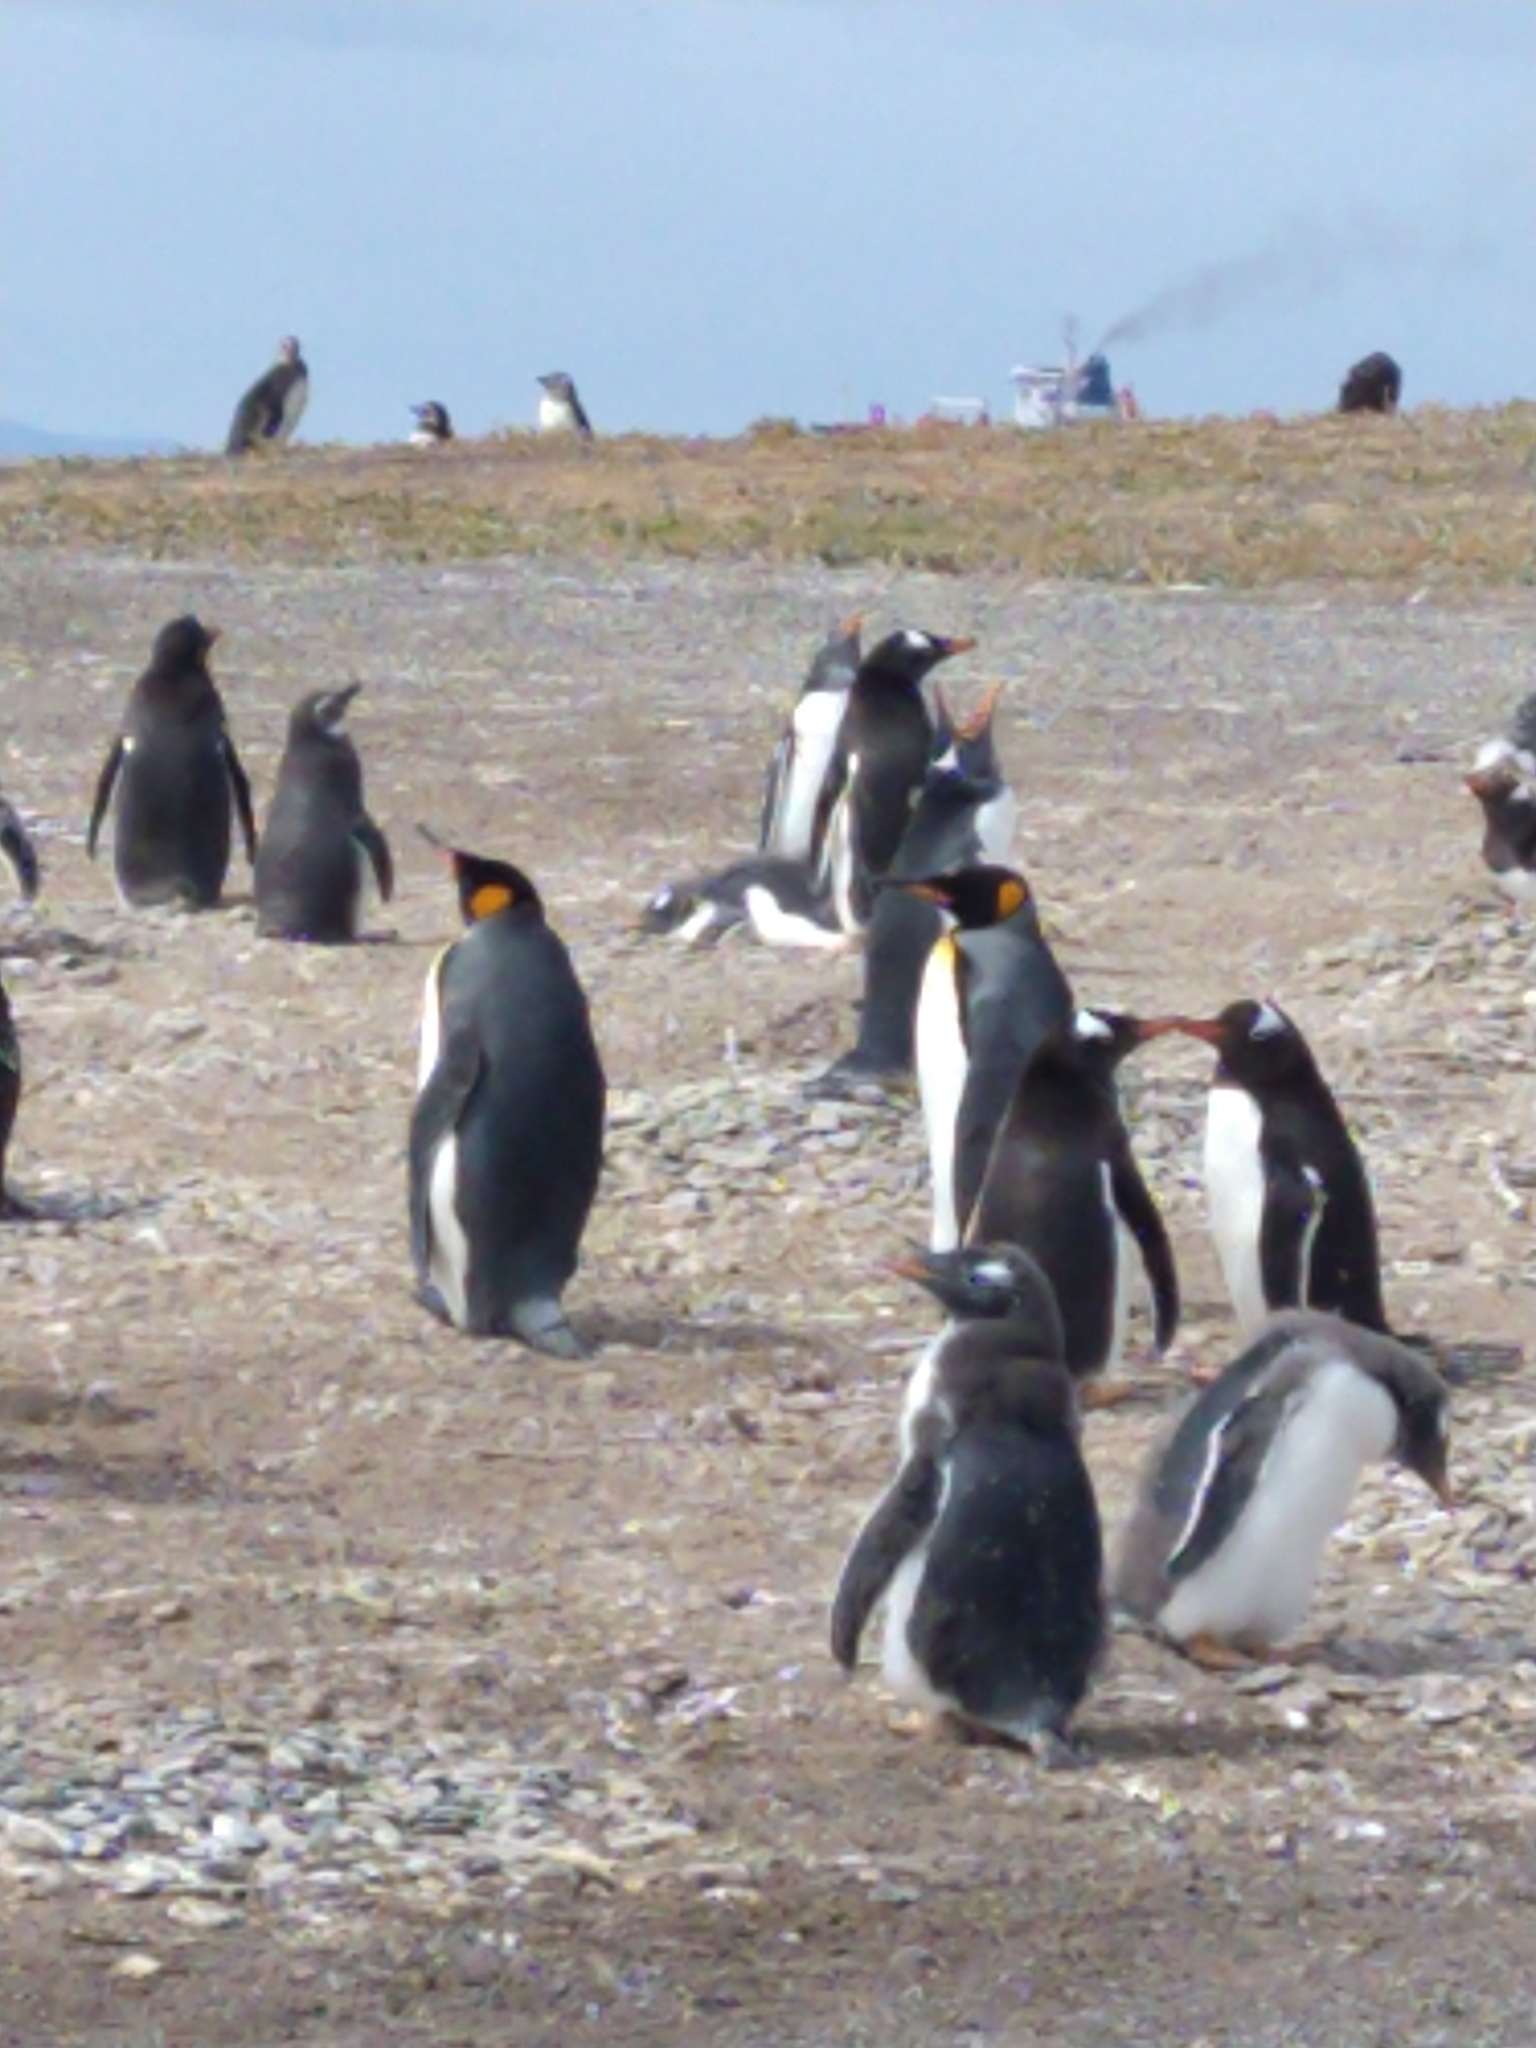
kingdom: Animalia
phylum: Chordata
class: Aves
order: Sphenisciformes
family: Spheniscidae
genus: Aptenodytes
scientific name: Aptenodytes patagonicus
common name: King penguin
